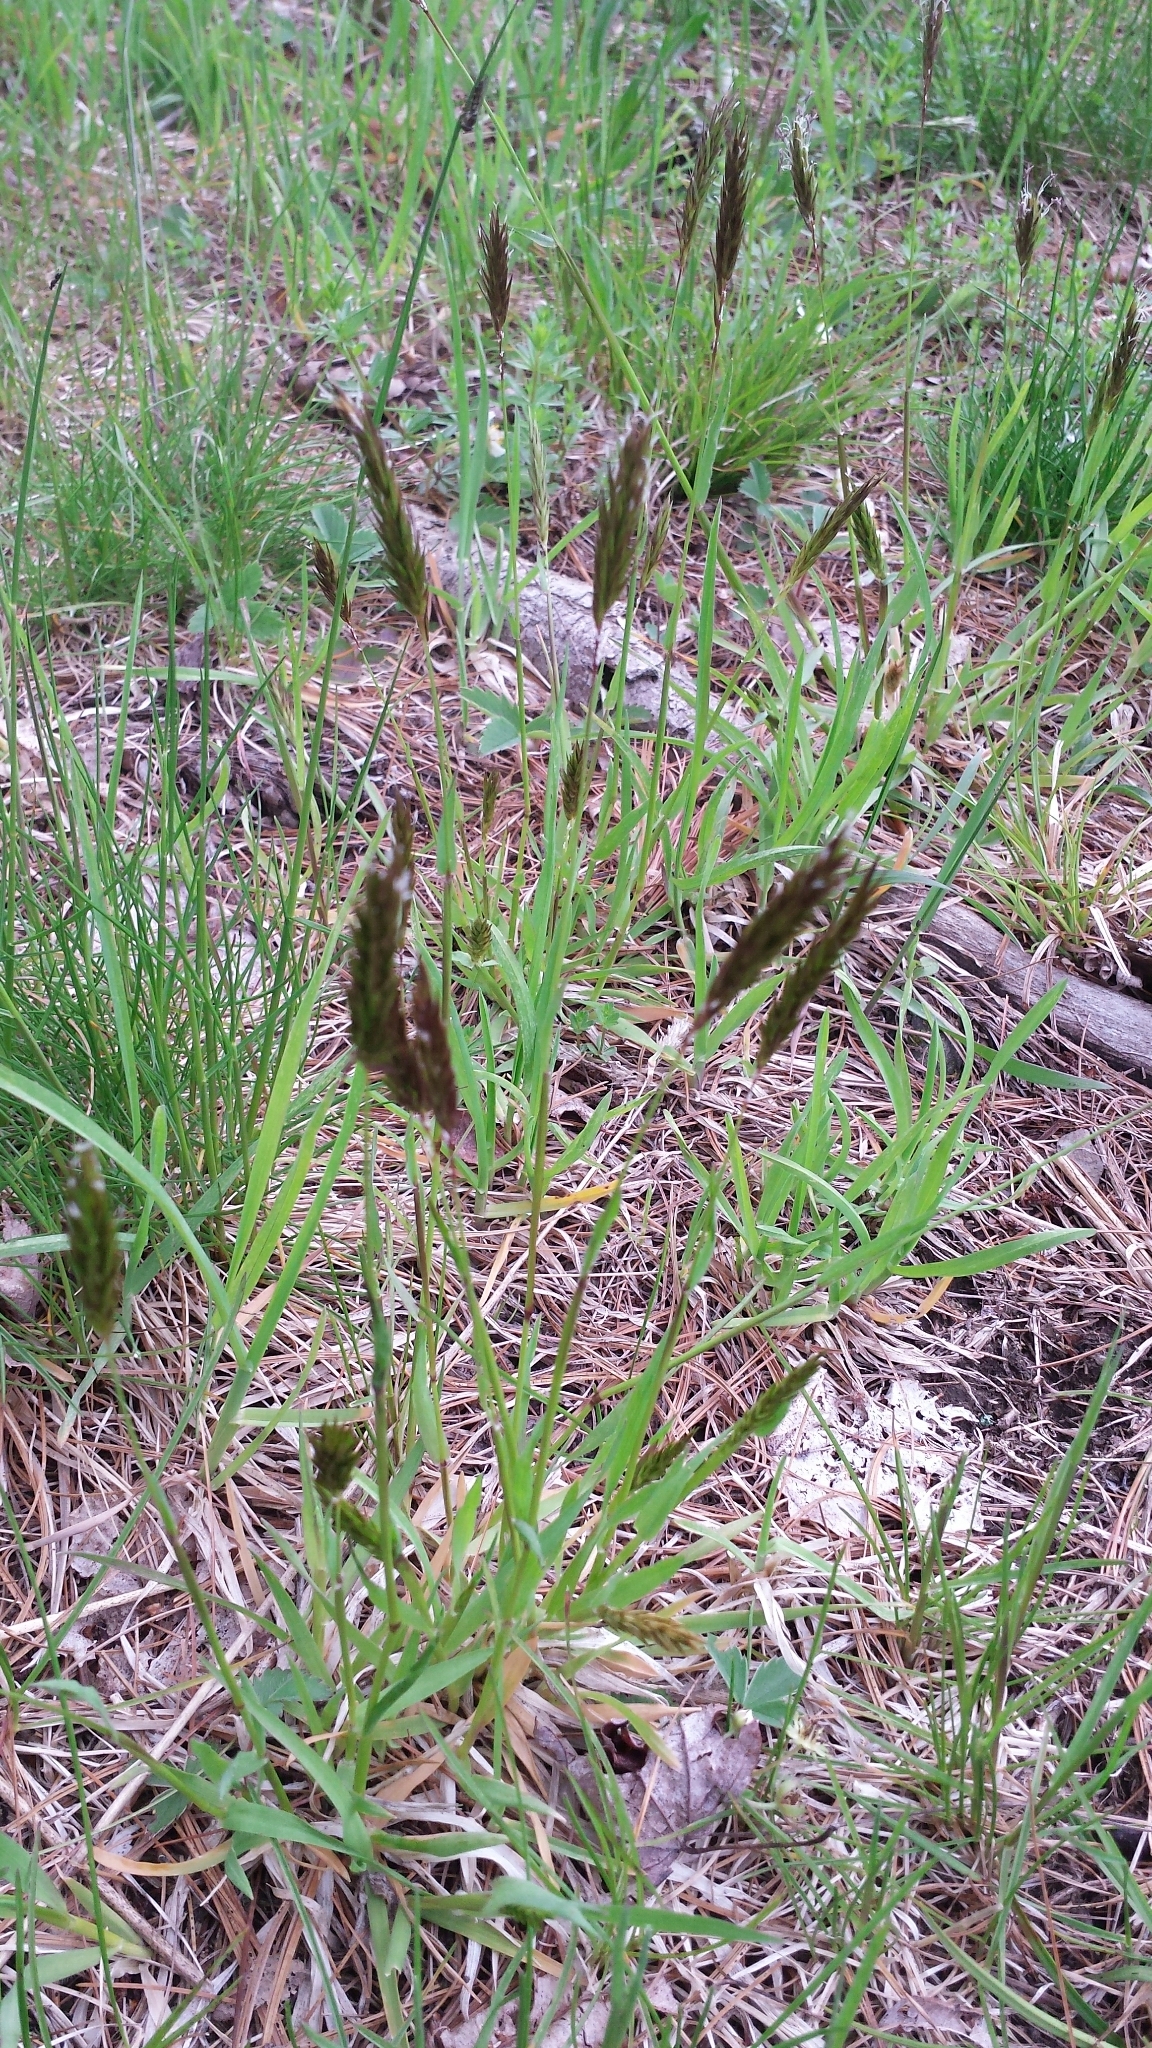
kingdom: Plantae
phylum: Tracheophyta
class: Liliopsida
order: Poales
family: Poaceae
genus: Anthoxanthum
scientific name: Anthoxanthum odoratum
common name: Sweet vernalgrass
